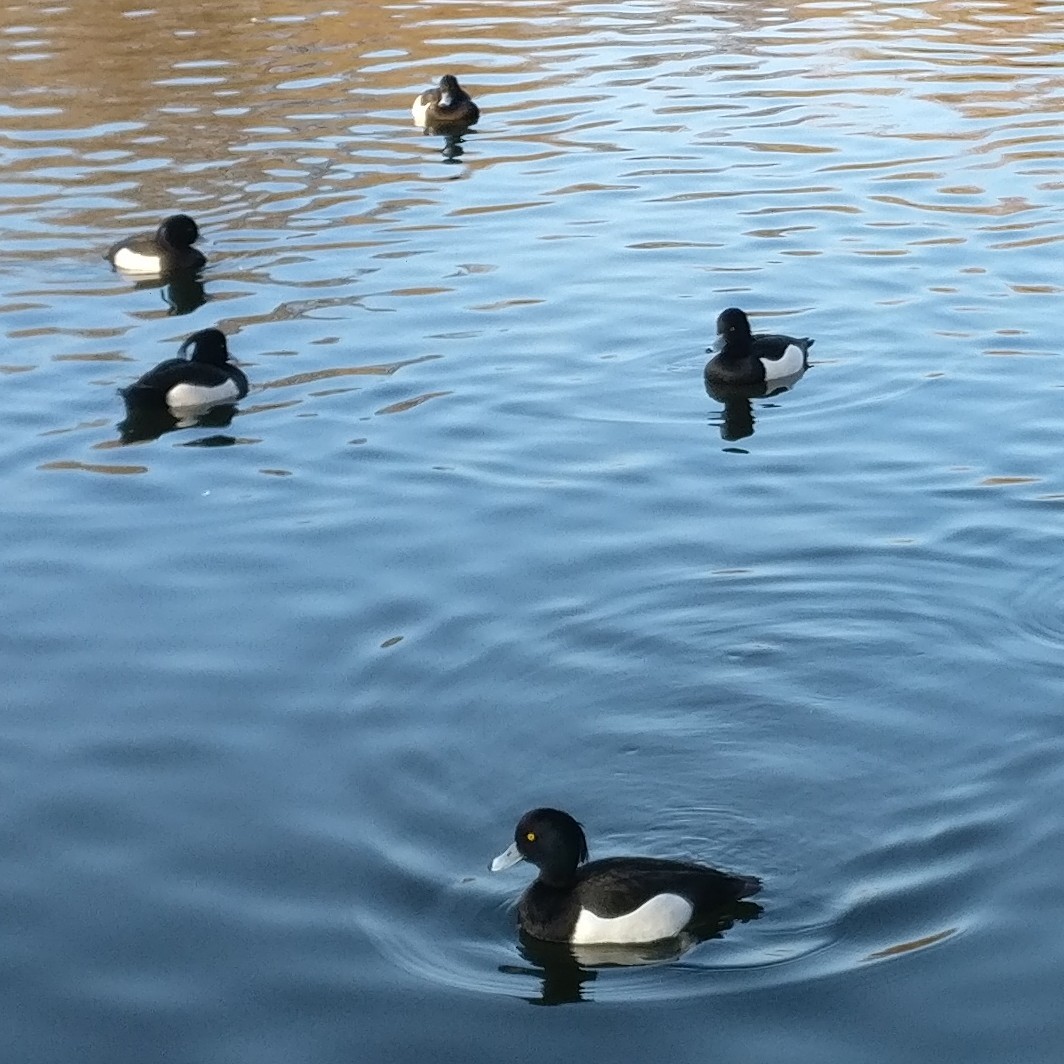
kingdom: Animalia
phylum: Chordata
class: Aves
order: Anseriformes
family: Anatidae
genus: Aythya
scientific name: Aythya fuligula
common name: Tufted duck
